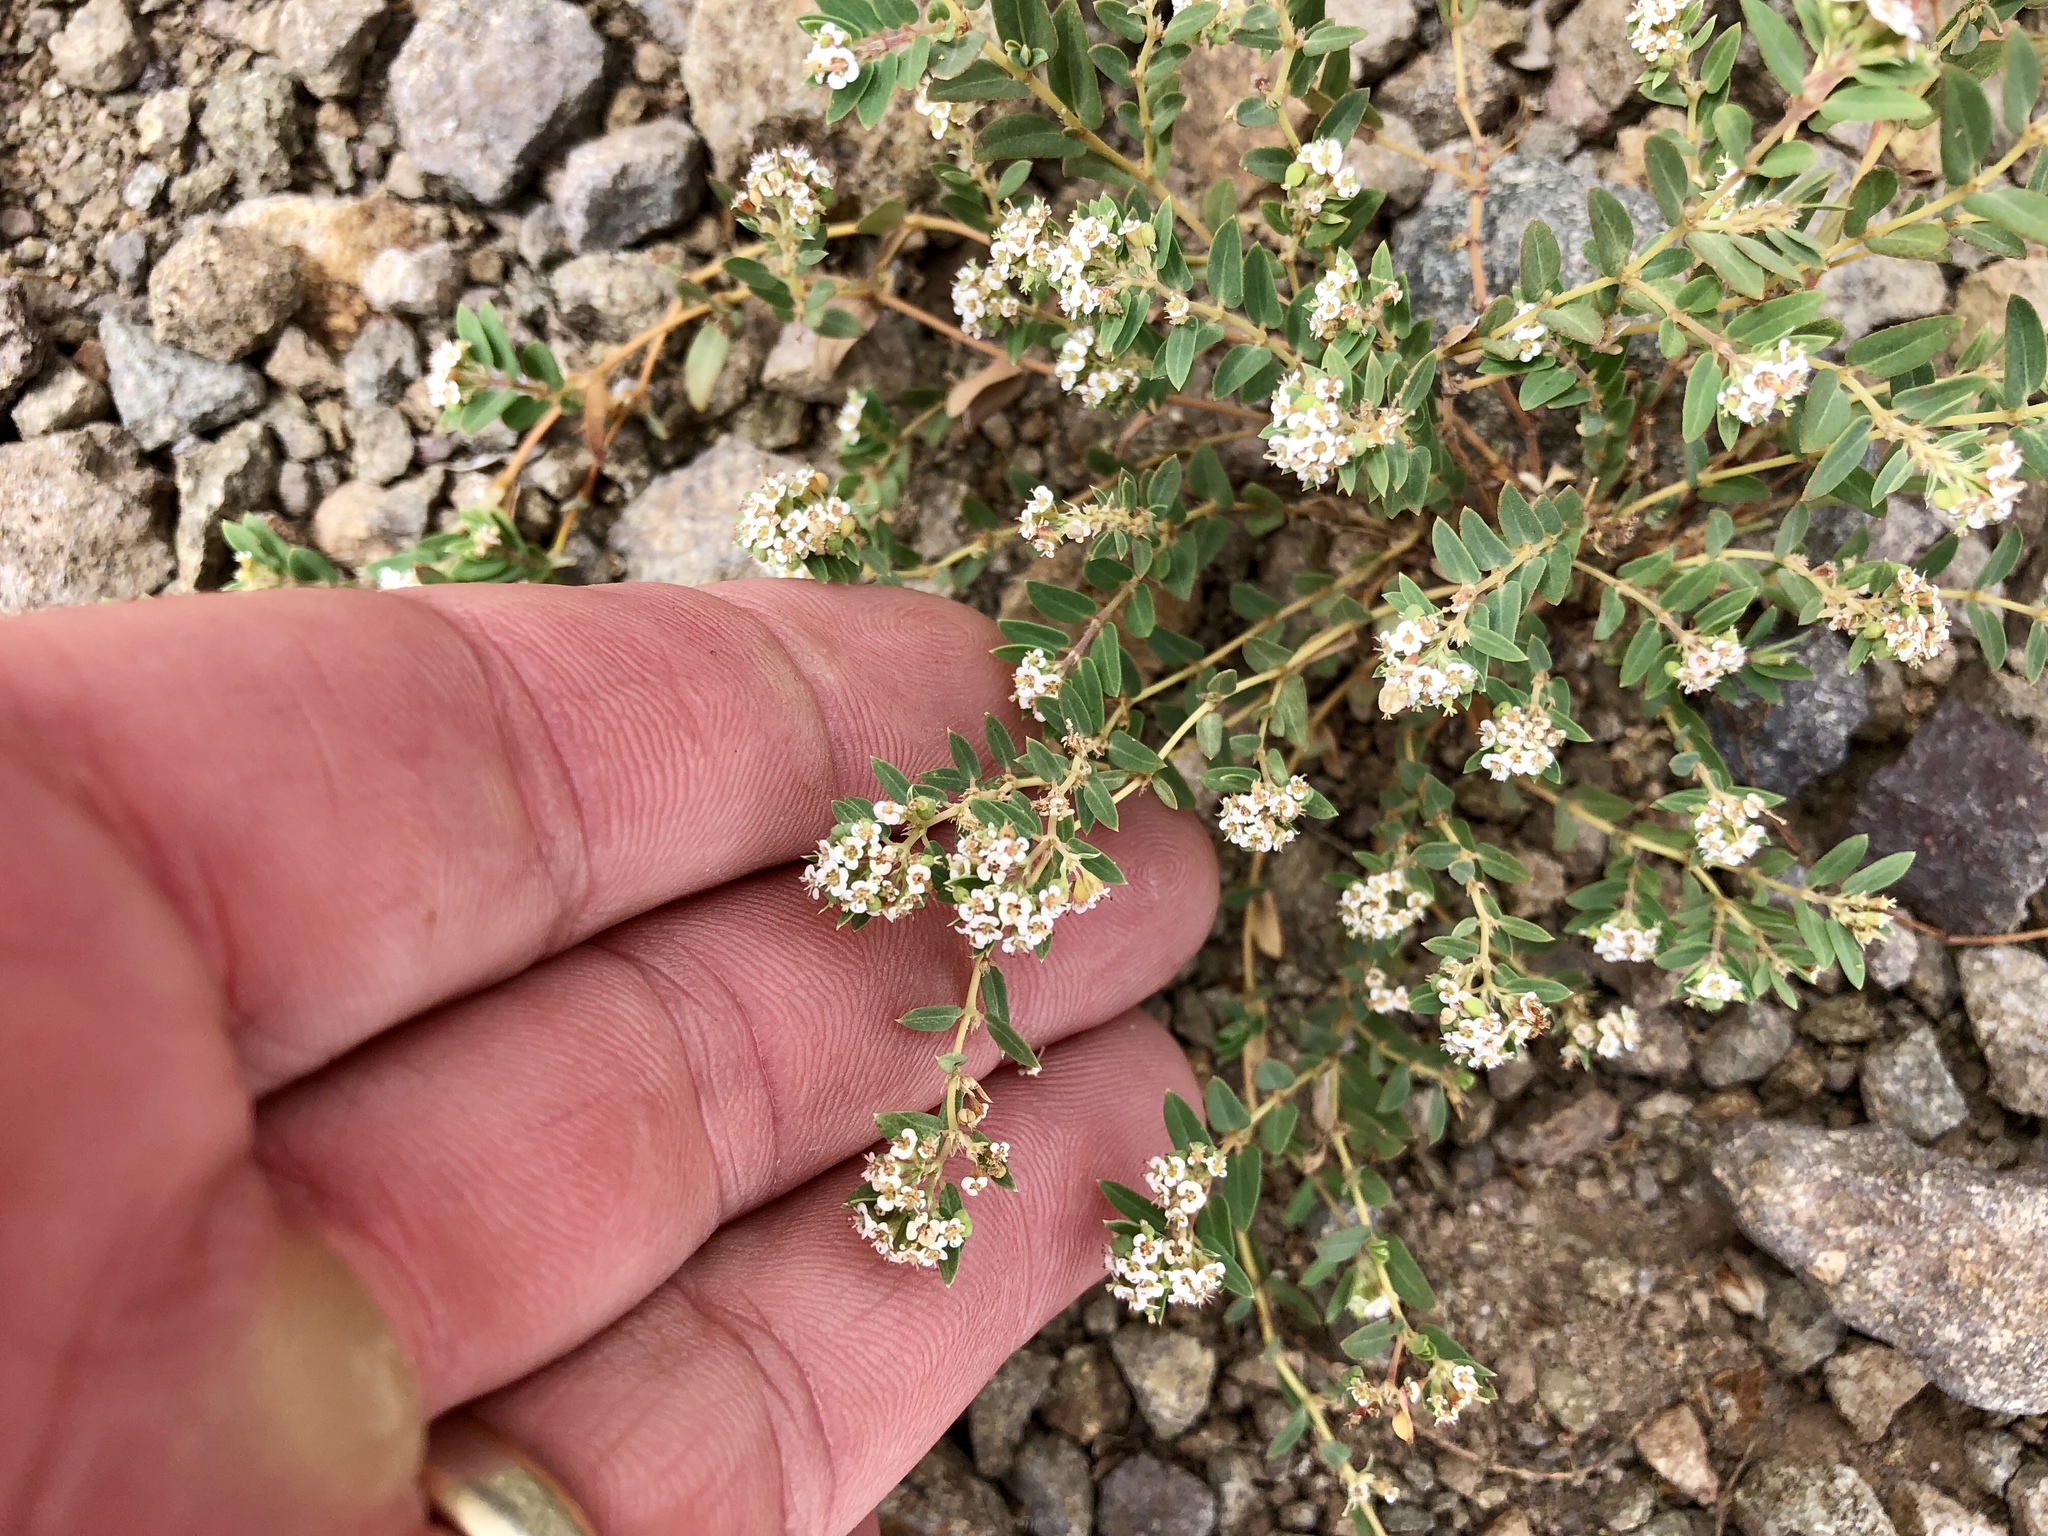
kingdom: Plantae
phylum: Tracheophyta
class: Magnoliopsida
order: Malpighiales
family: Euphorbiaceae
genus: Euphorbia
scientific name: Euphorbia capitellata
